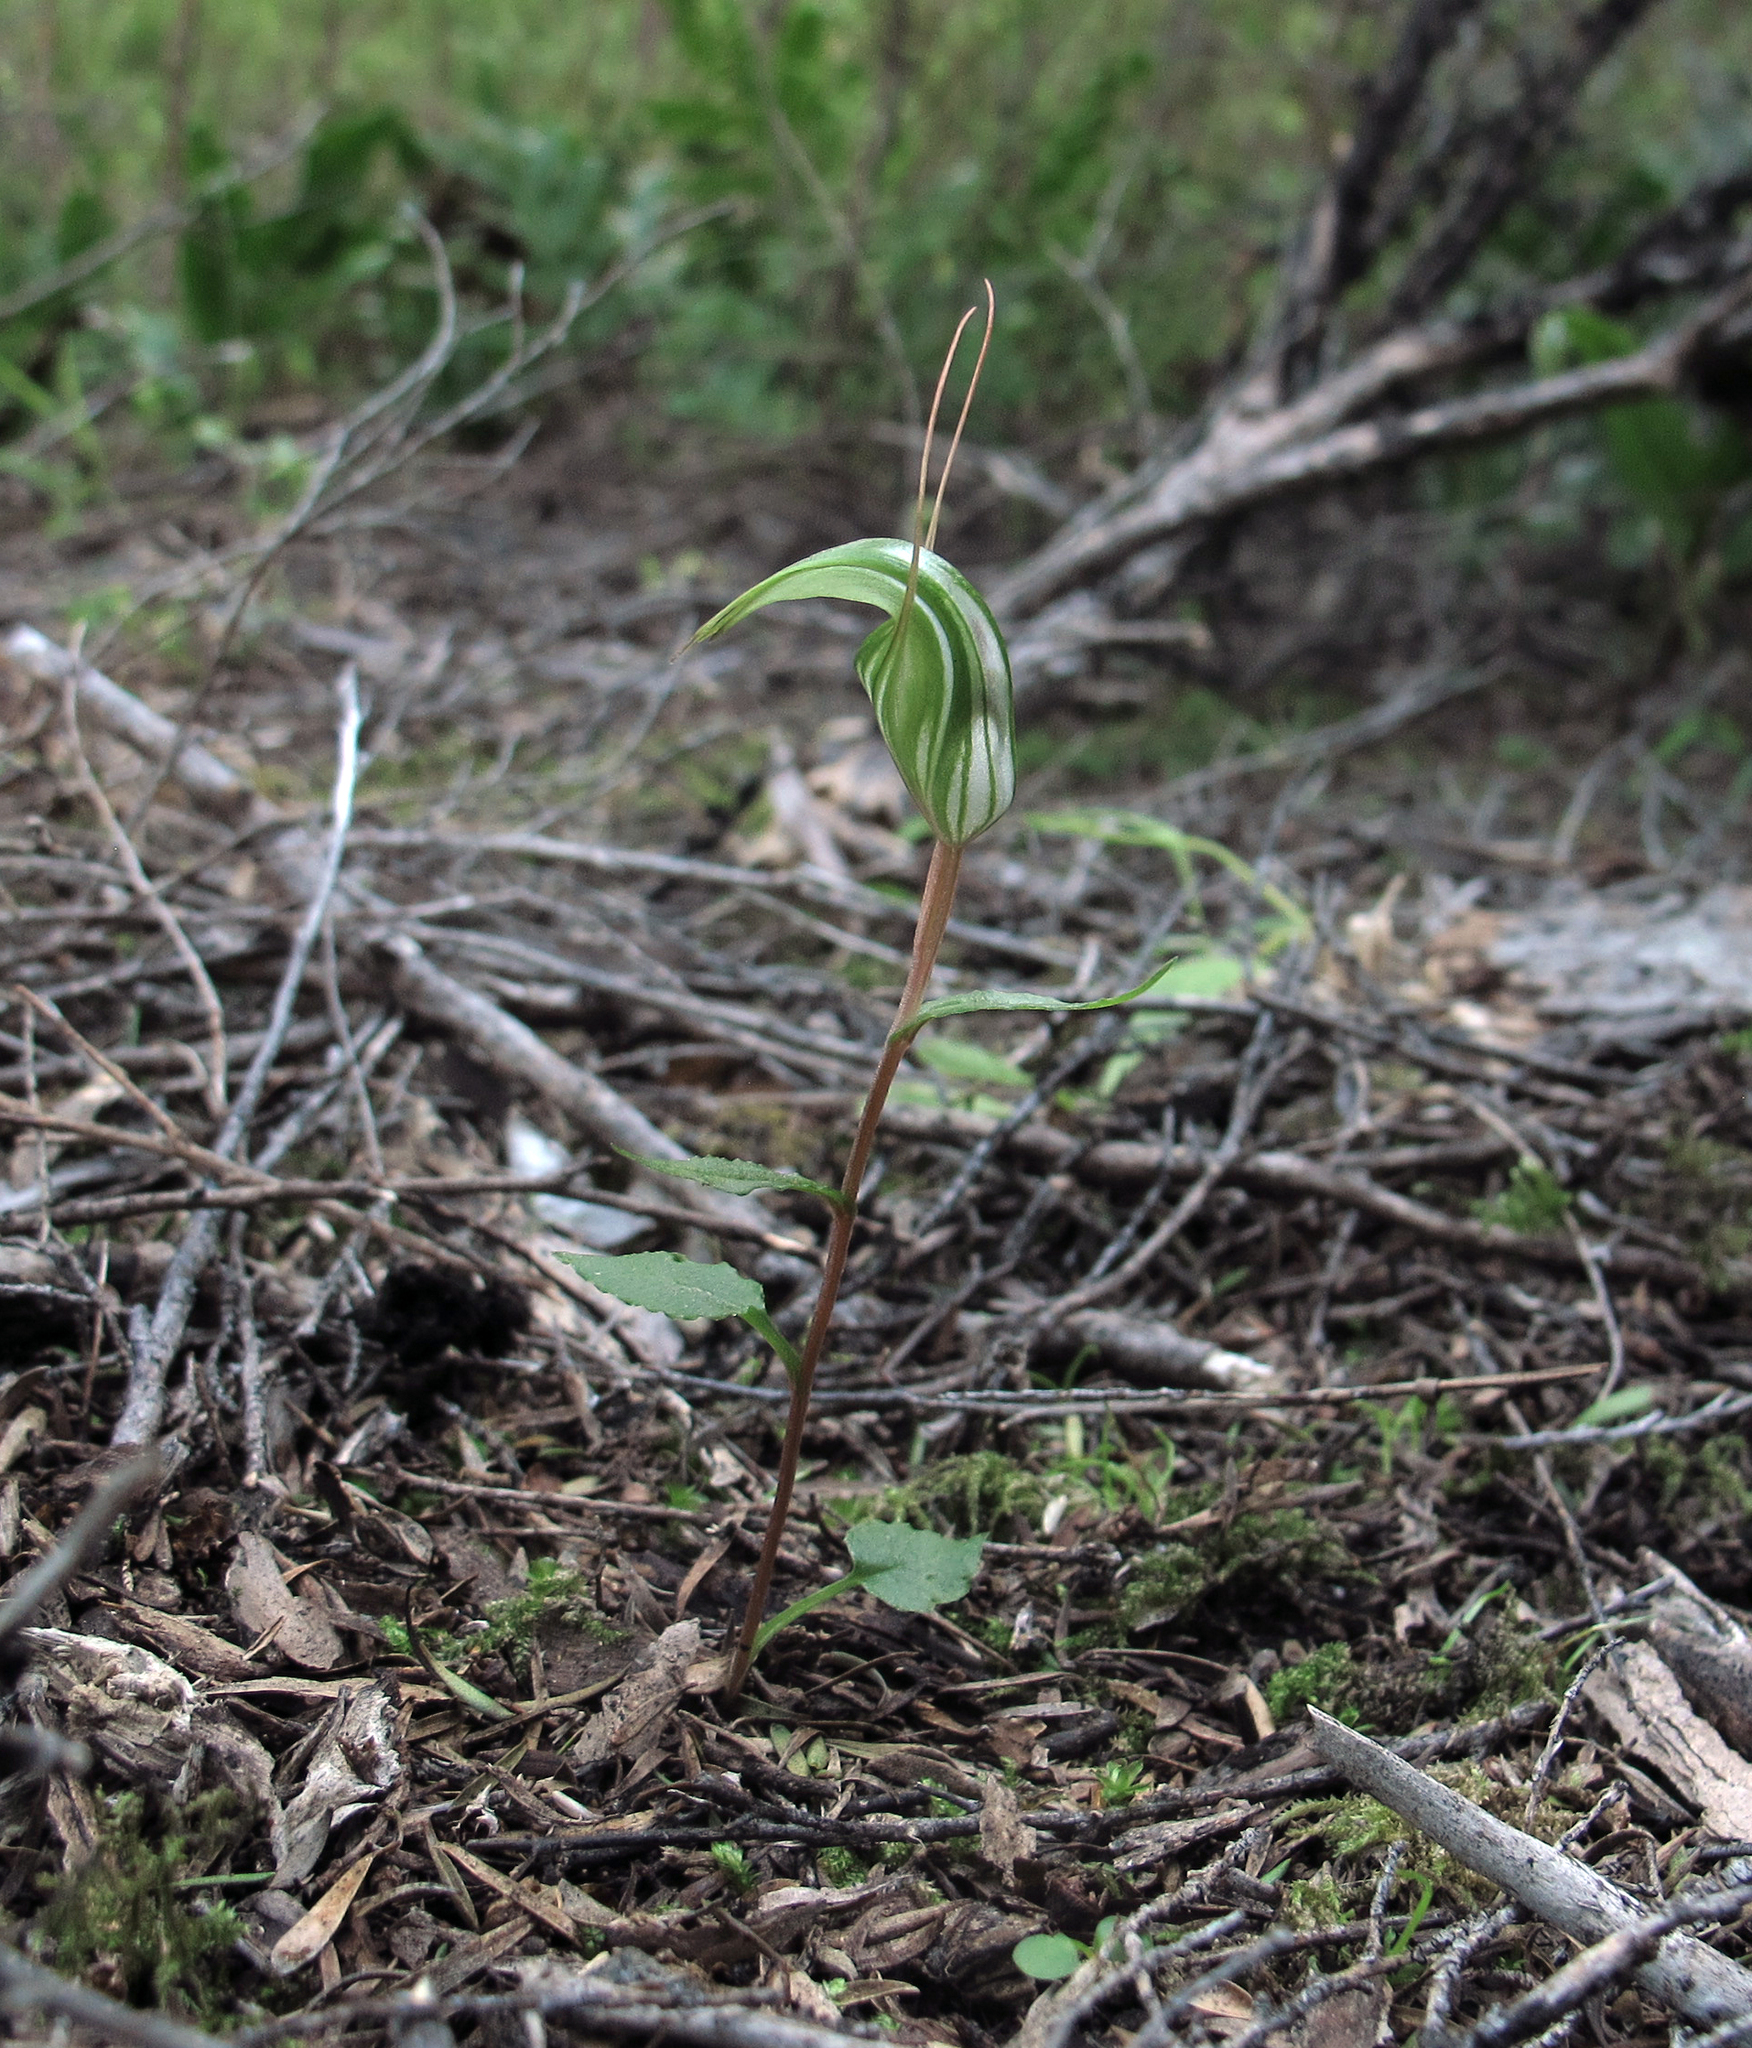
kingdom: Plantae
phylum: Tracheophyta
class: Liliopsida
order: Asparagales
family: Orchidaceae
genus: Pterostylis
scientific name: Pterostylis alobula
